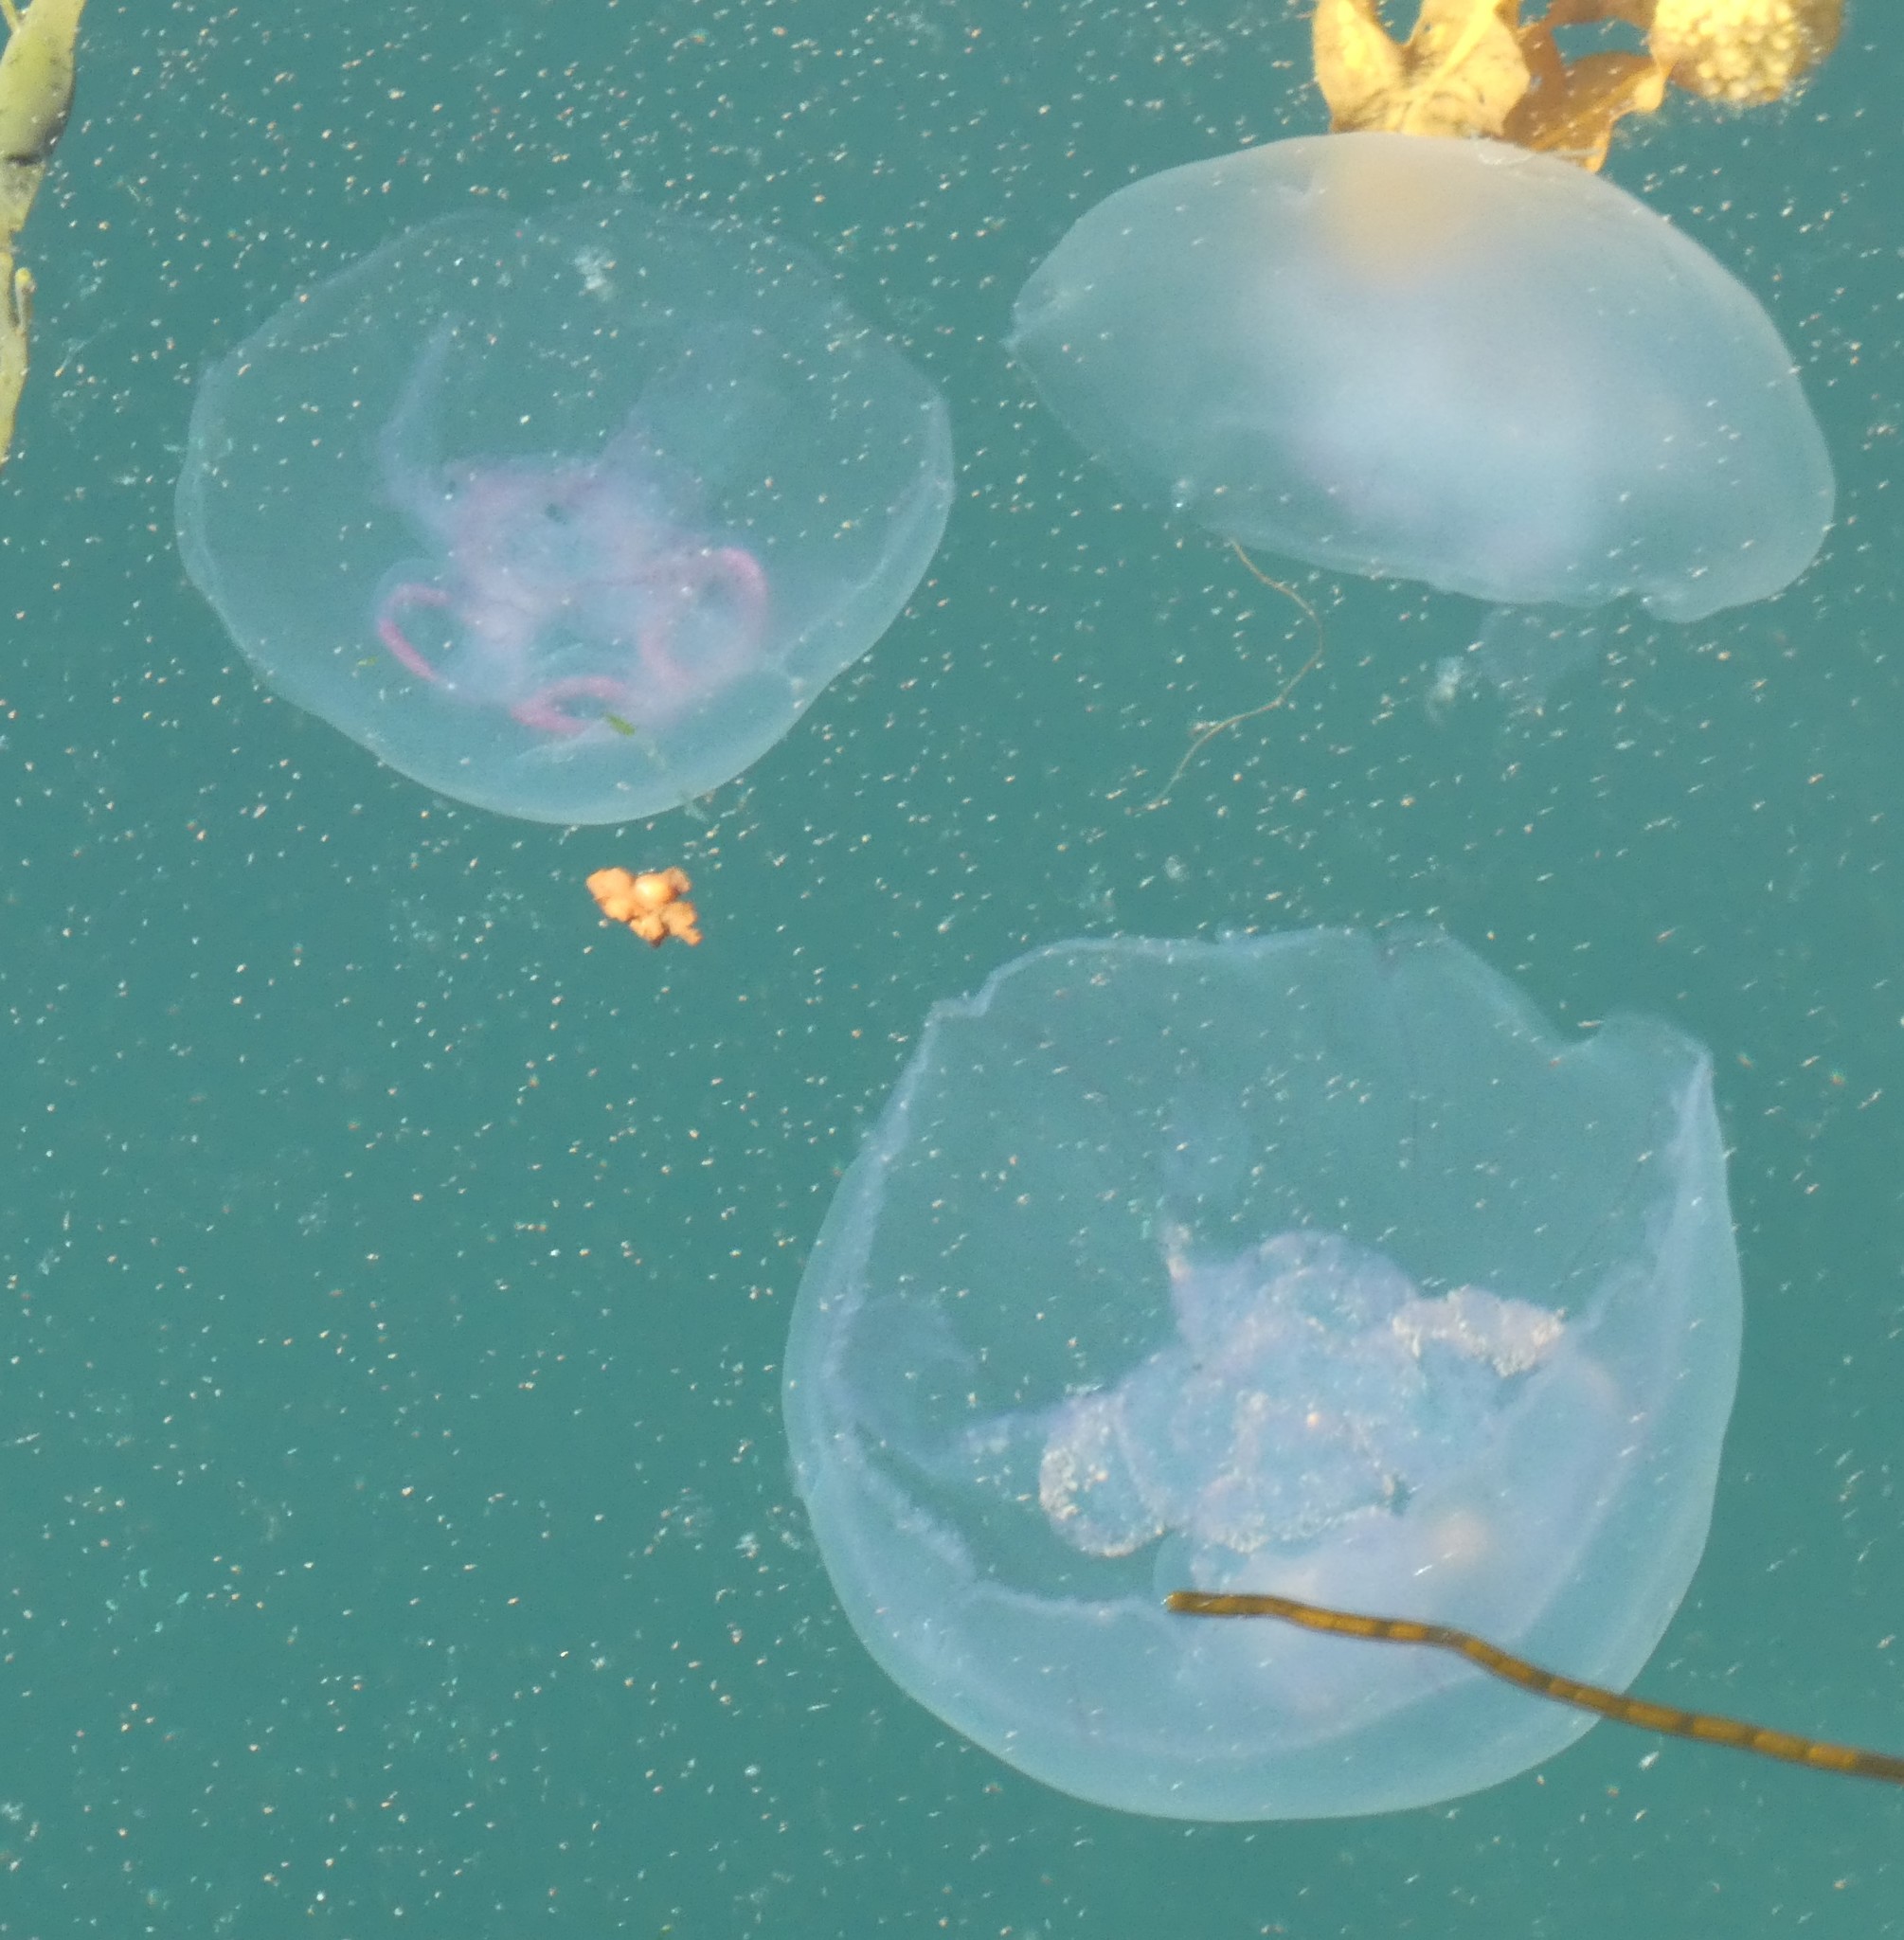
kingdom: Animalia
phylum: Cnidaria
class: Scyphozoa
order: Semaeostomeae
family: Ulmaridae
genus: Aurelia
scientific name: Aurelia aurita
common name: Moon jellyfish
